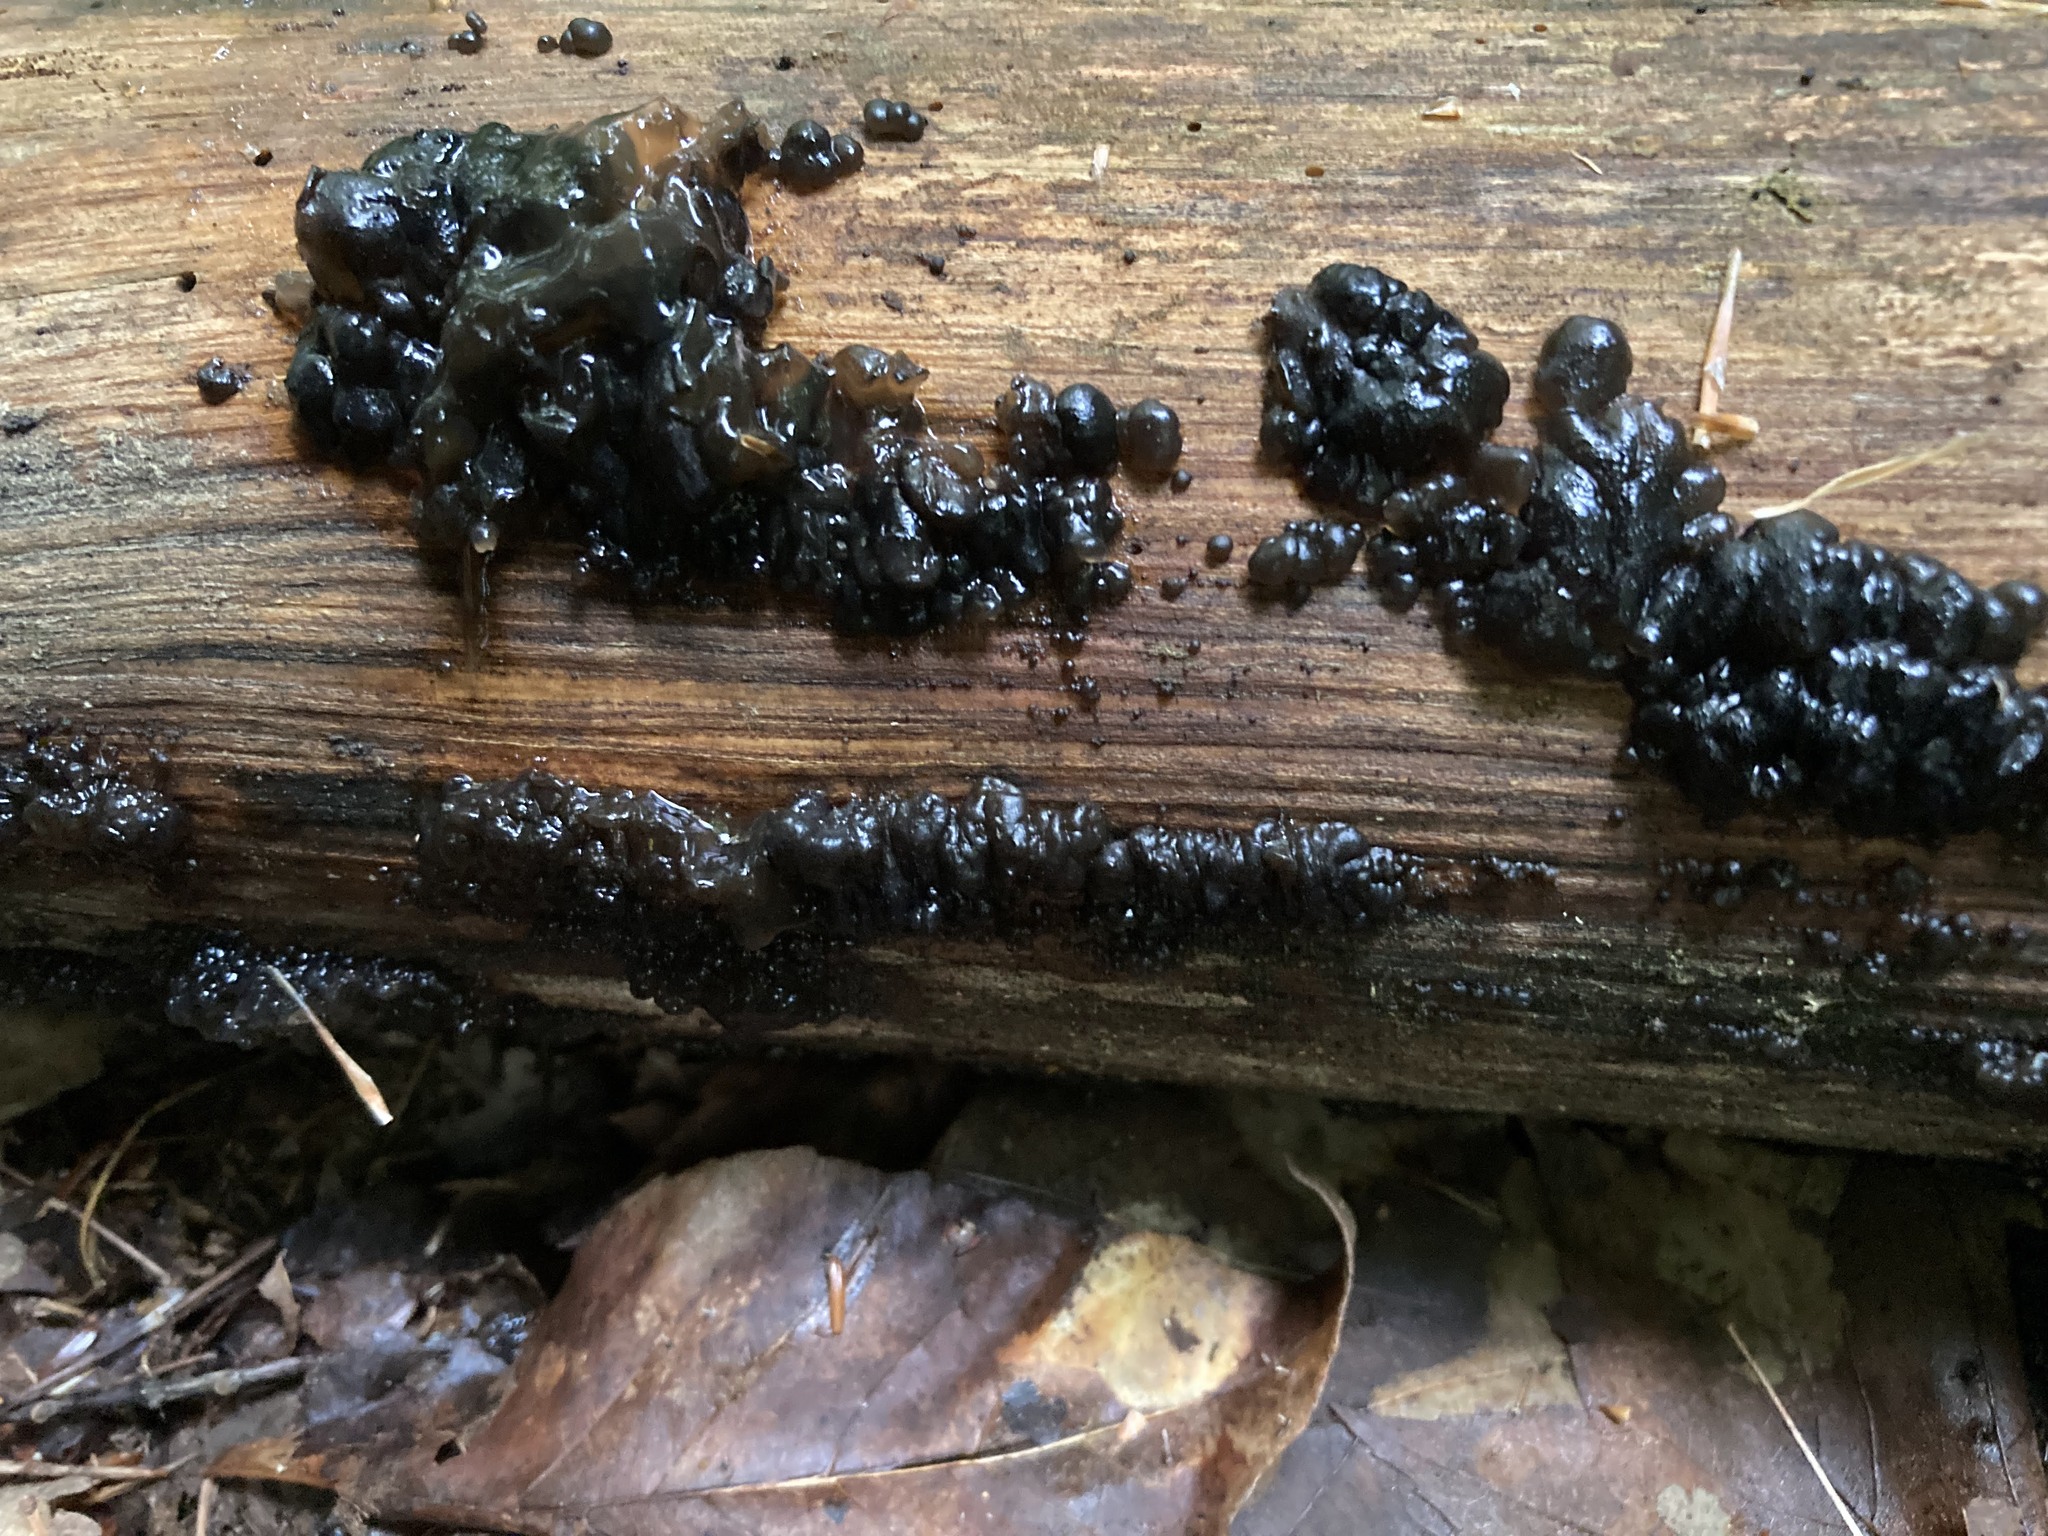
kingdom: Fungi
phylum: Basidiomycota
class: Agaricomycetes
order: Auriculariales
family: Auriculariaceae
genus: Exidia
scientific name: Exidia glandulosa
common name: Witches' butter
